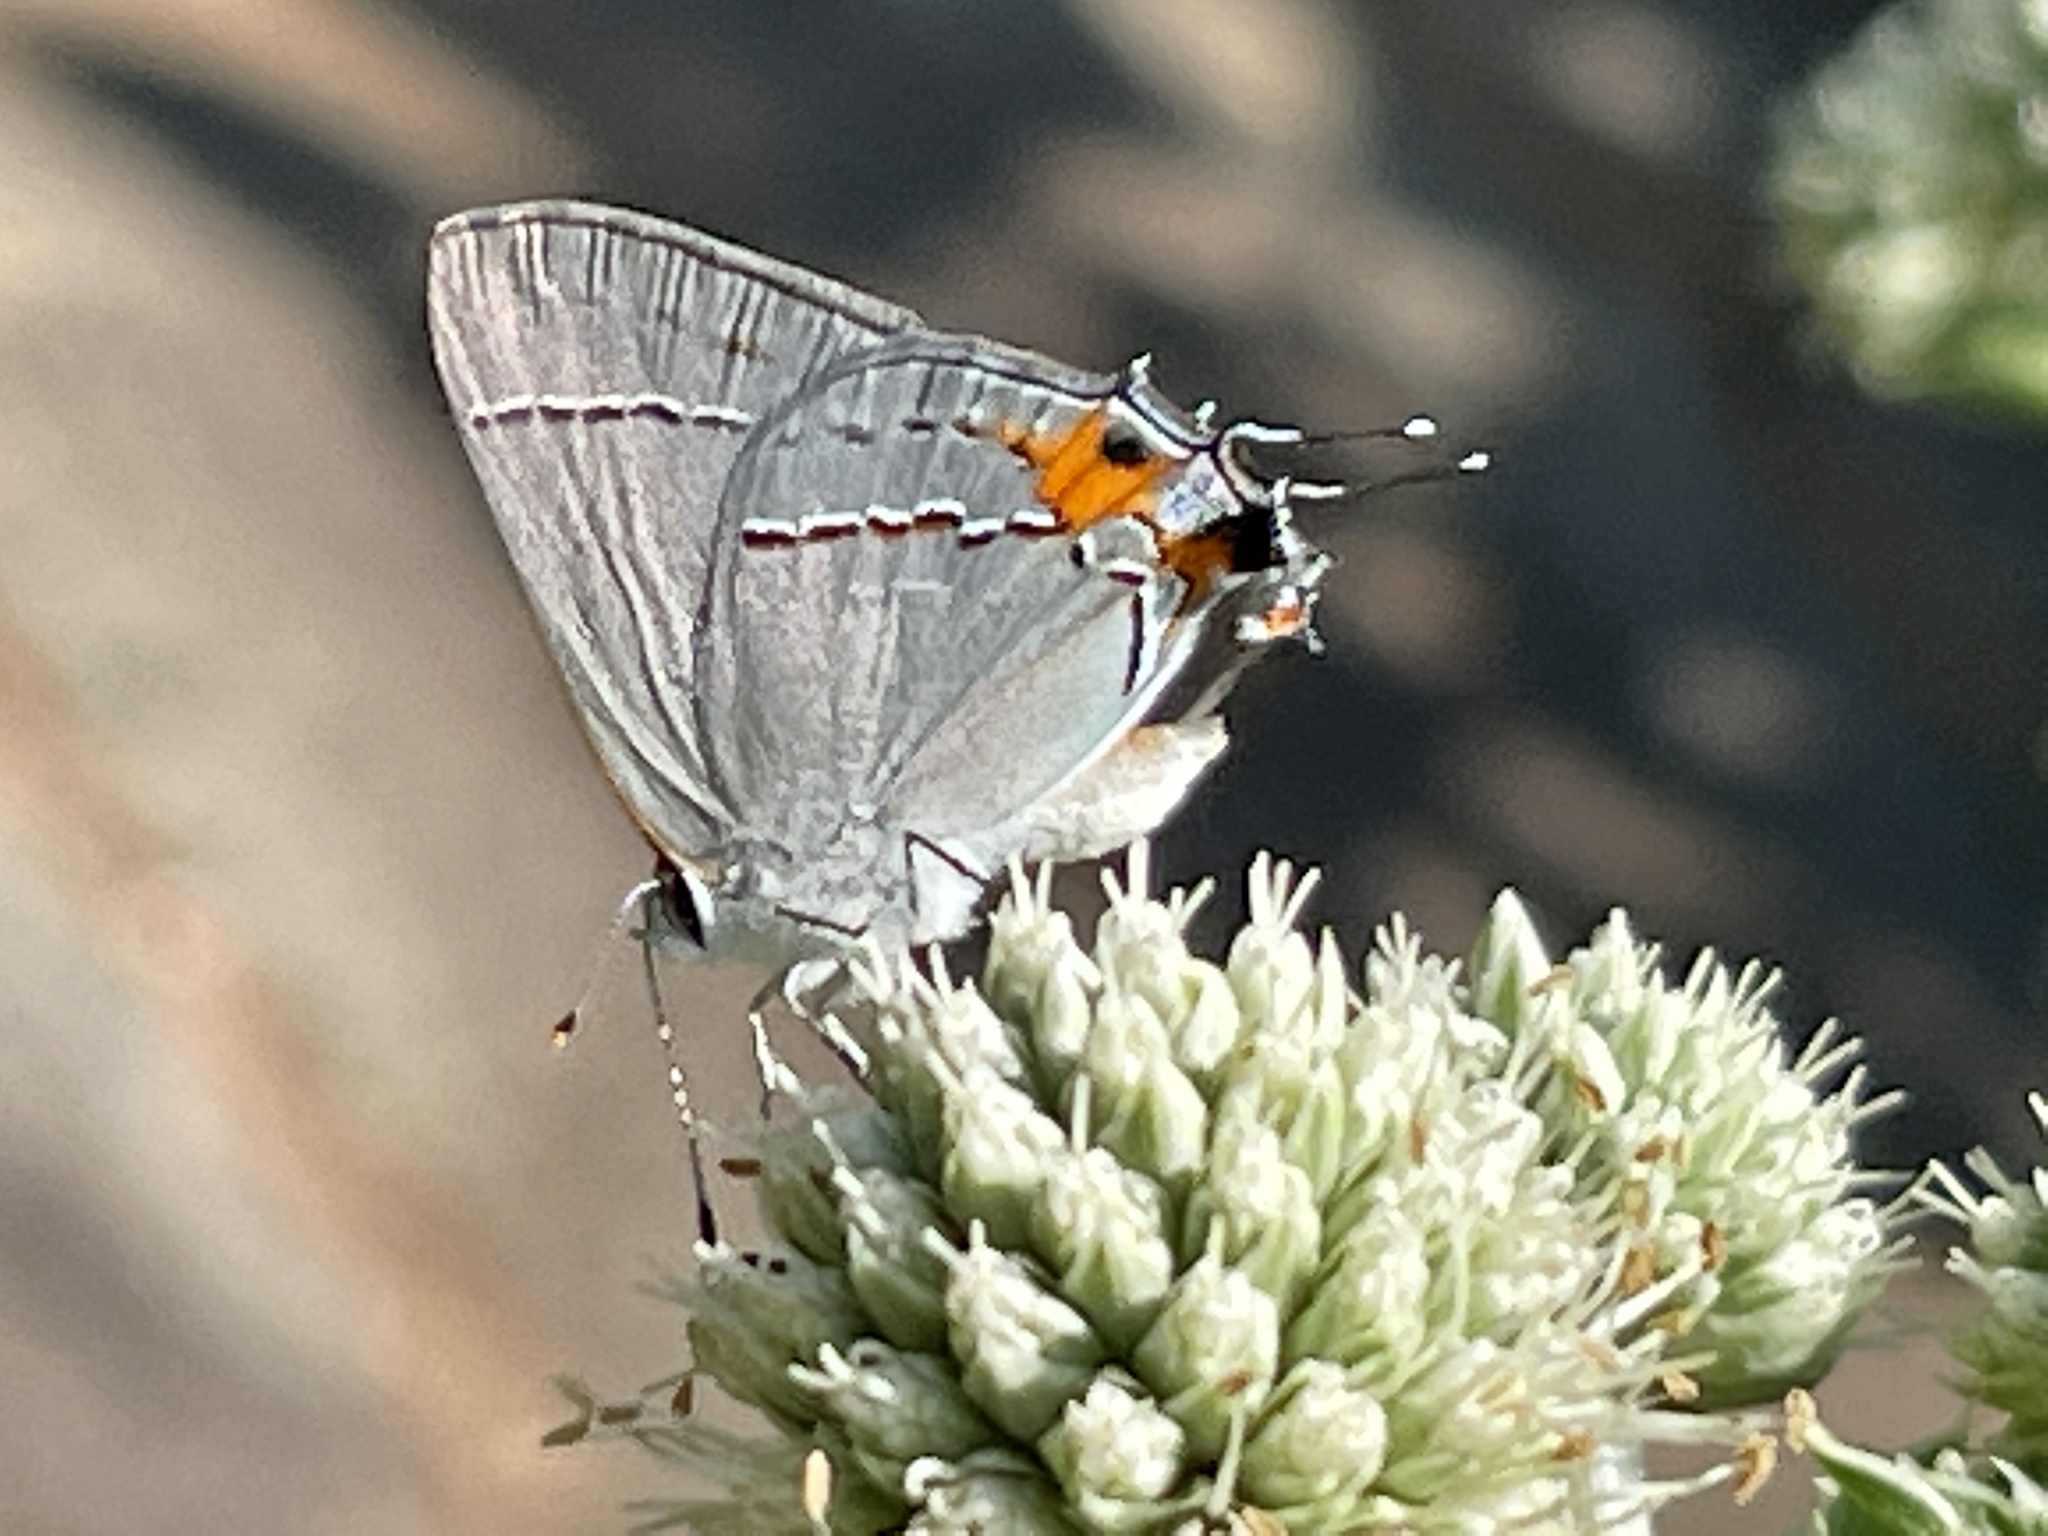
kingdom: Animalia
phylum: Arthropoda
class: Insecta
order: Lepidoptera
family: Lycaenidae
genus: Strymon
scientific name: Strymon melinus
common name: Gray hairstreak
